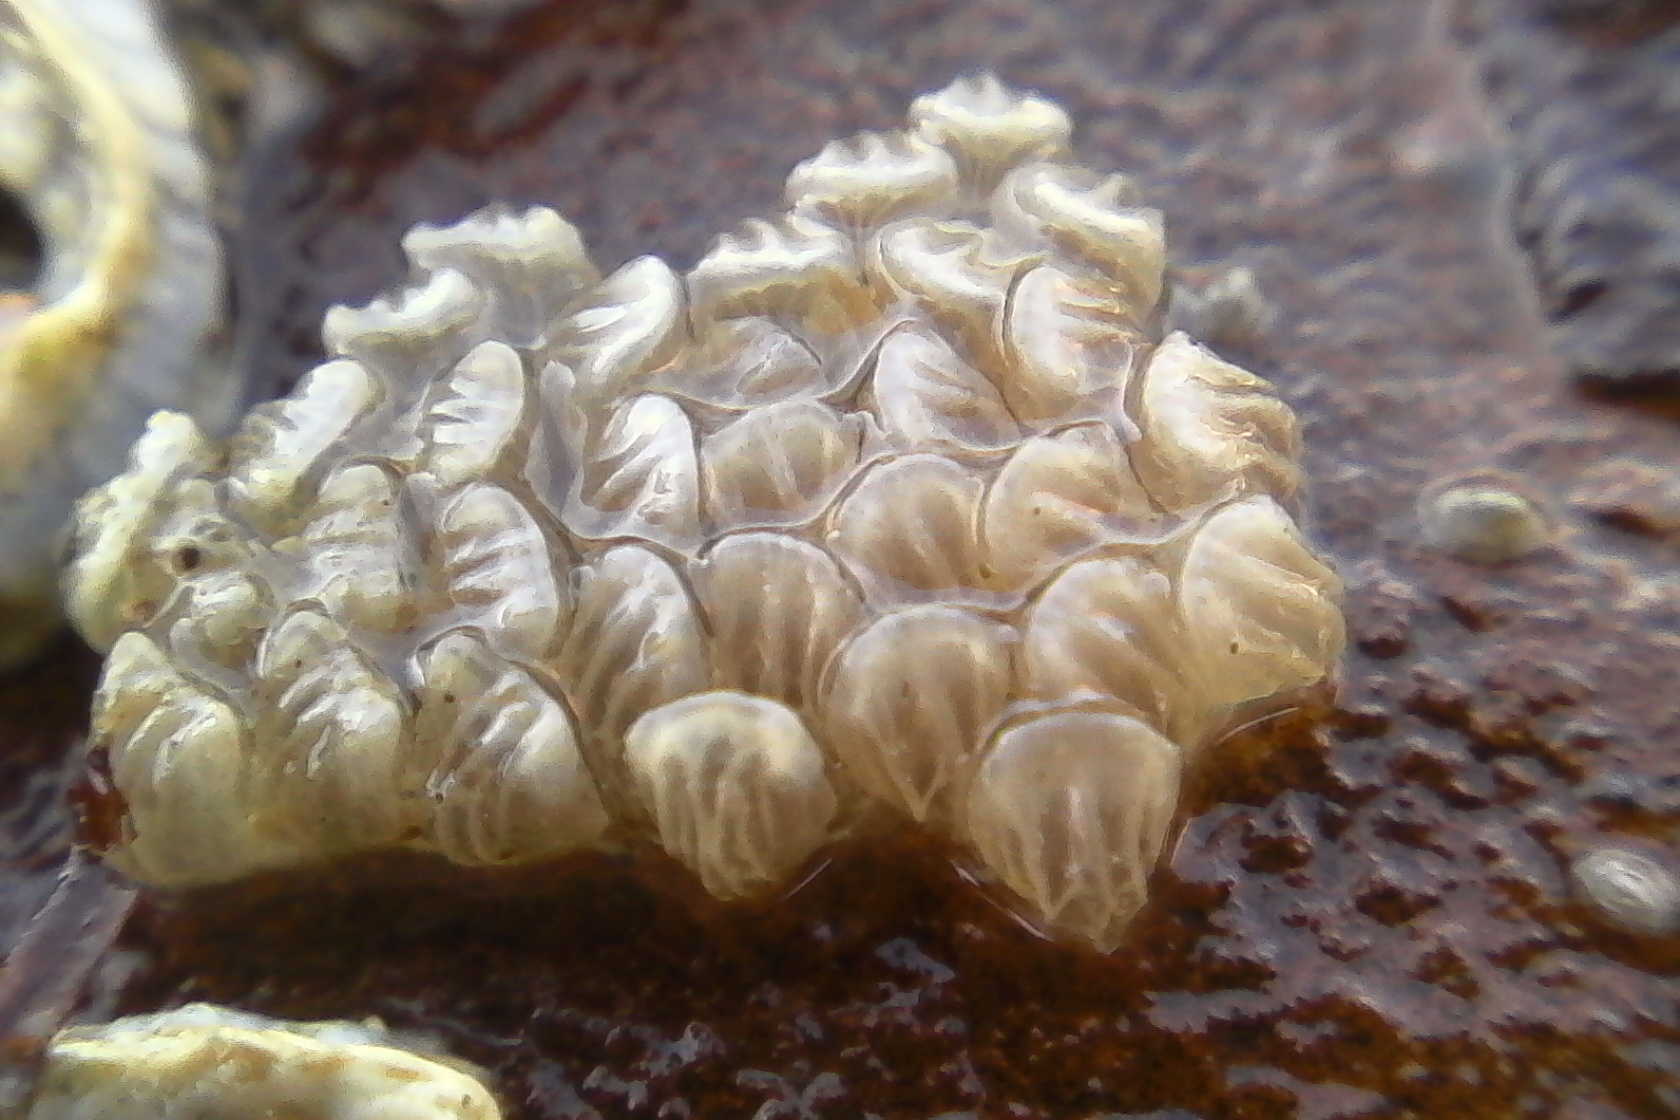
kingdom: Animalia
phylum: Mollusca
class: Gastropoda
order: Neogastropoda
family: Cominellidae
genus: Cominella
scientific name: Cominella virgata
